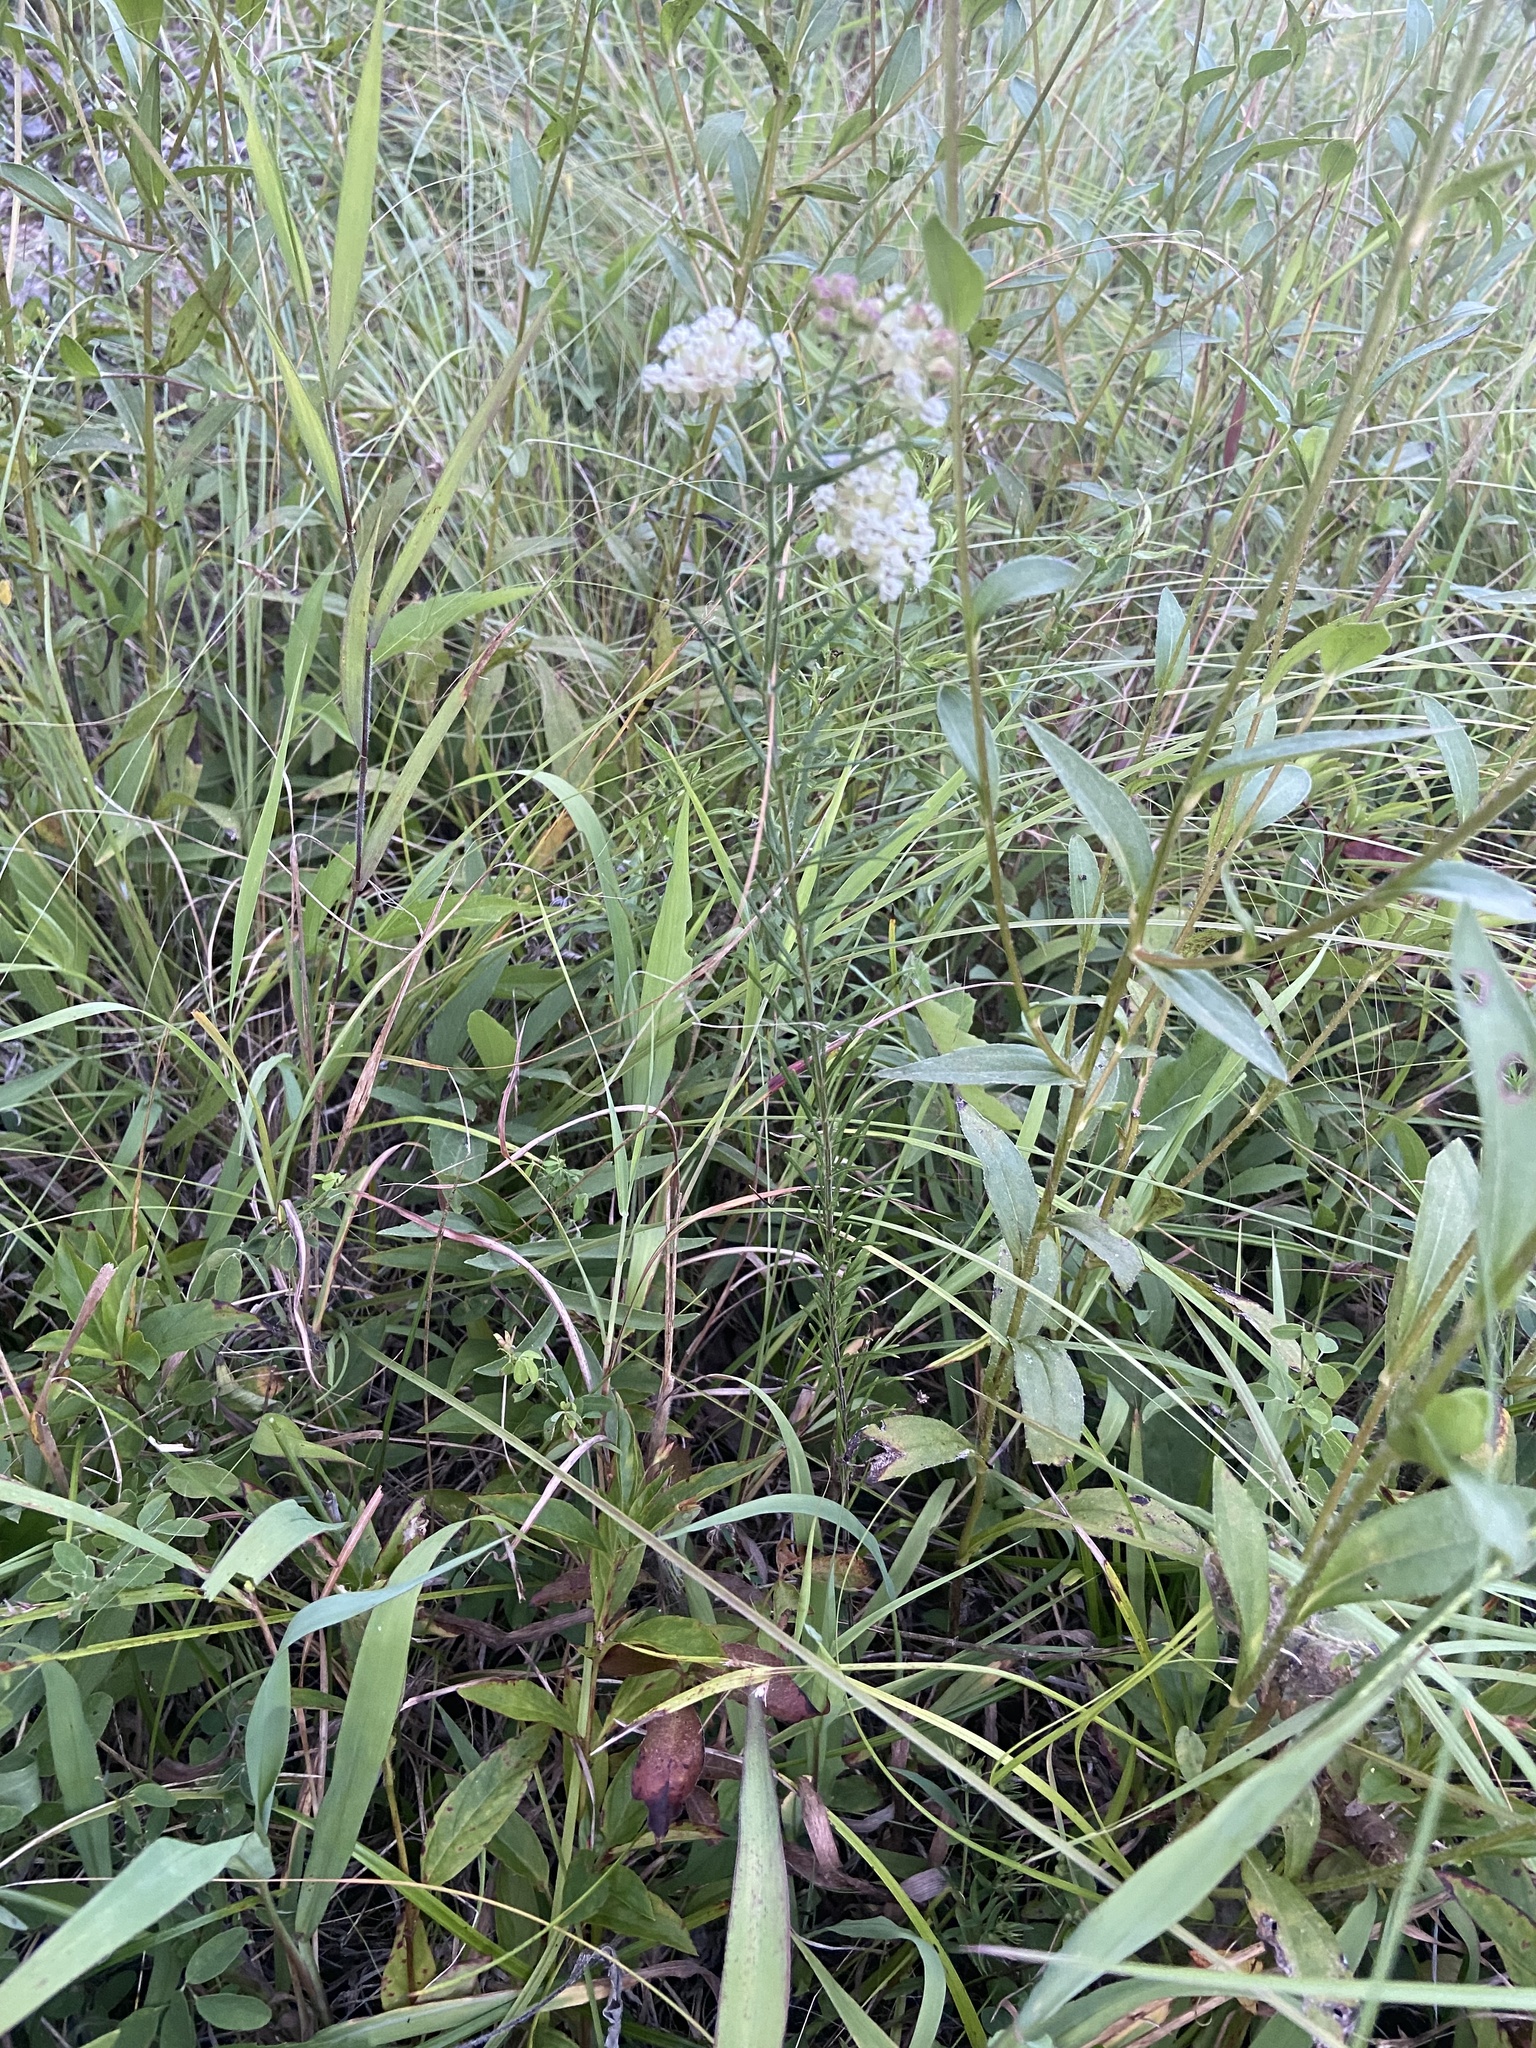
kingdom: Plantae
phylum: Tracheophyta
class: Magnoliopsida
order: Gentianales
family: Apocynaceae
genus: Asclepias
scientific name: Asclepias verticillata
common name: Eastern whorled milkweed
